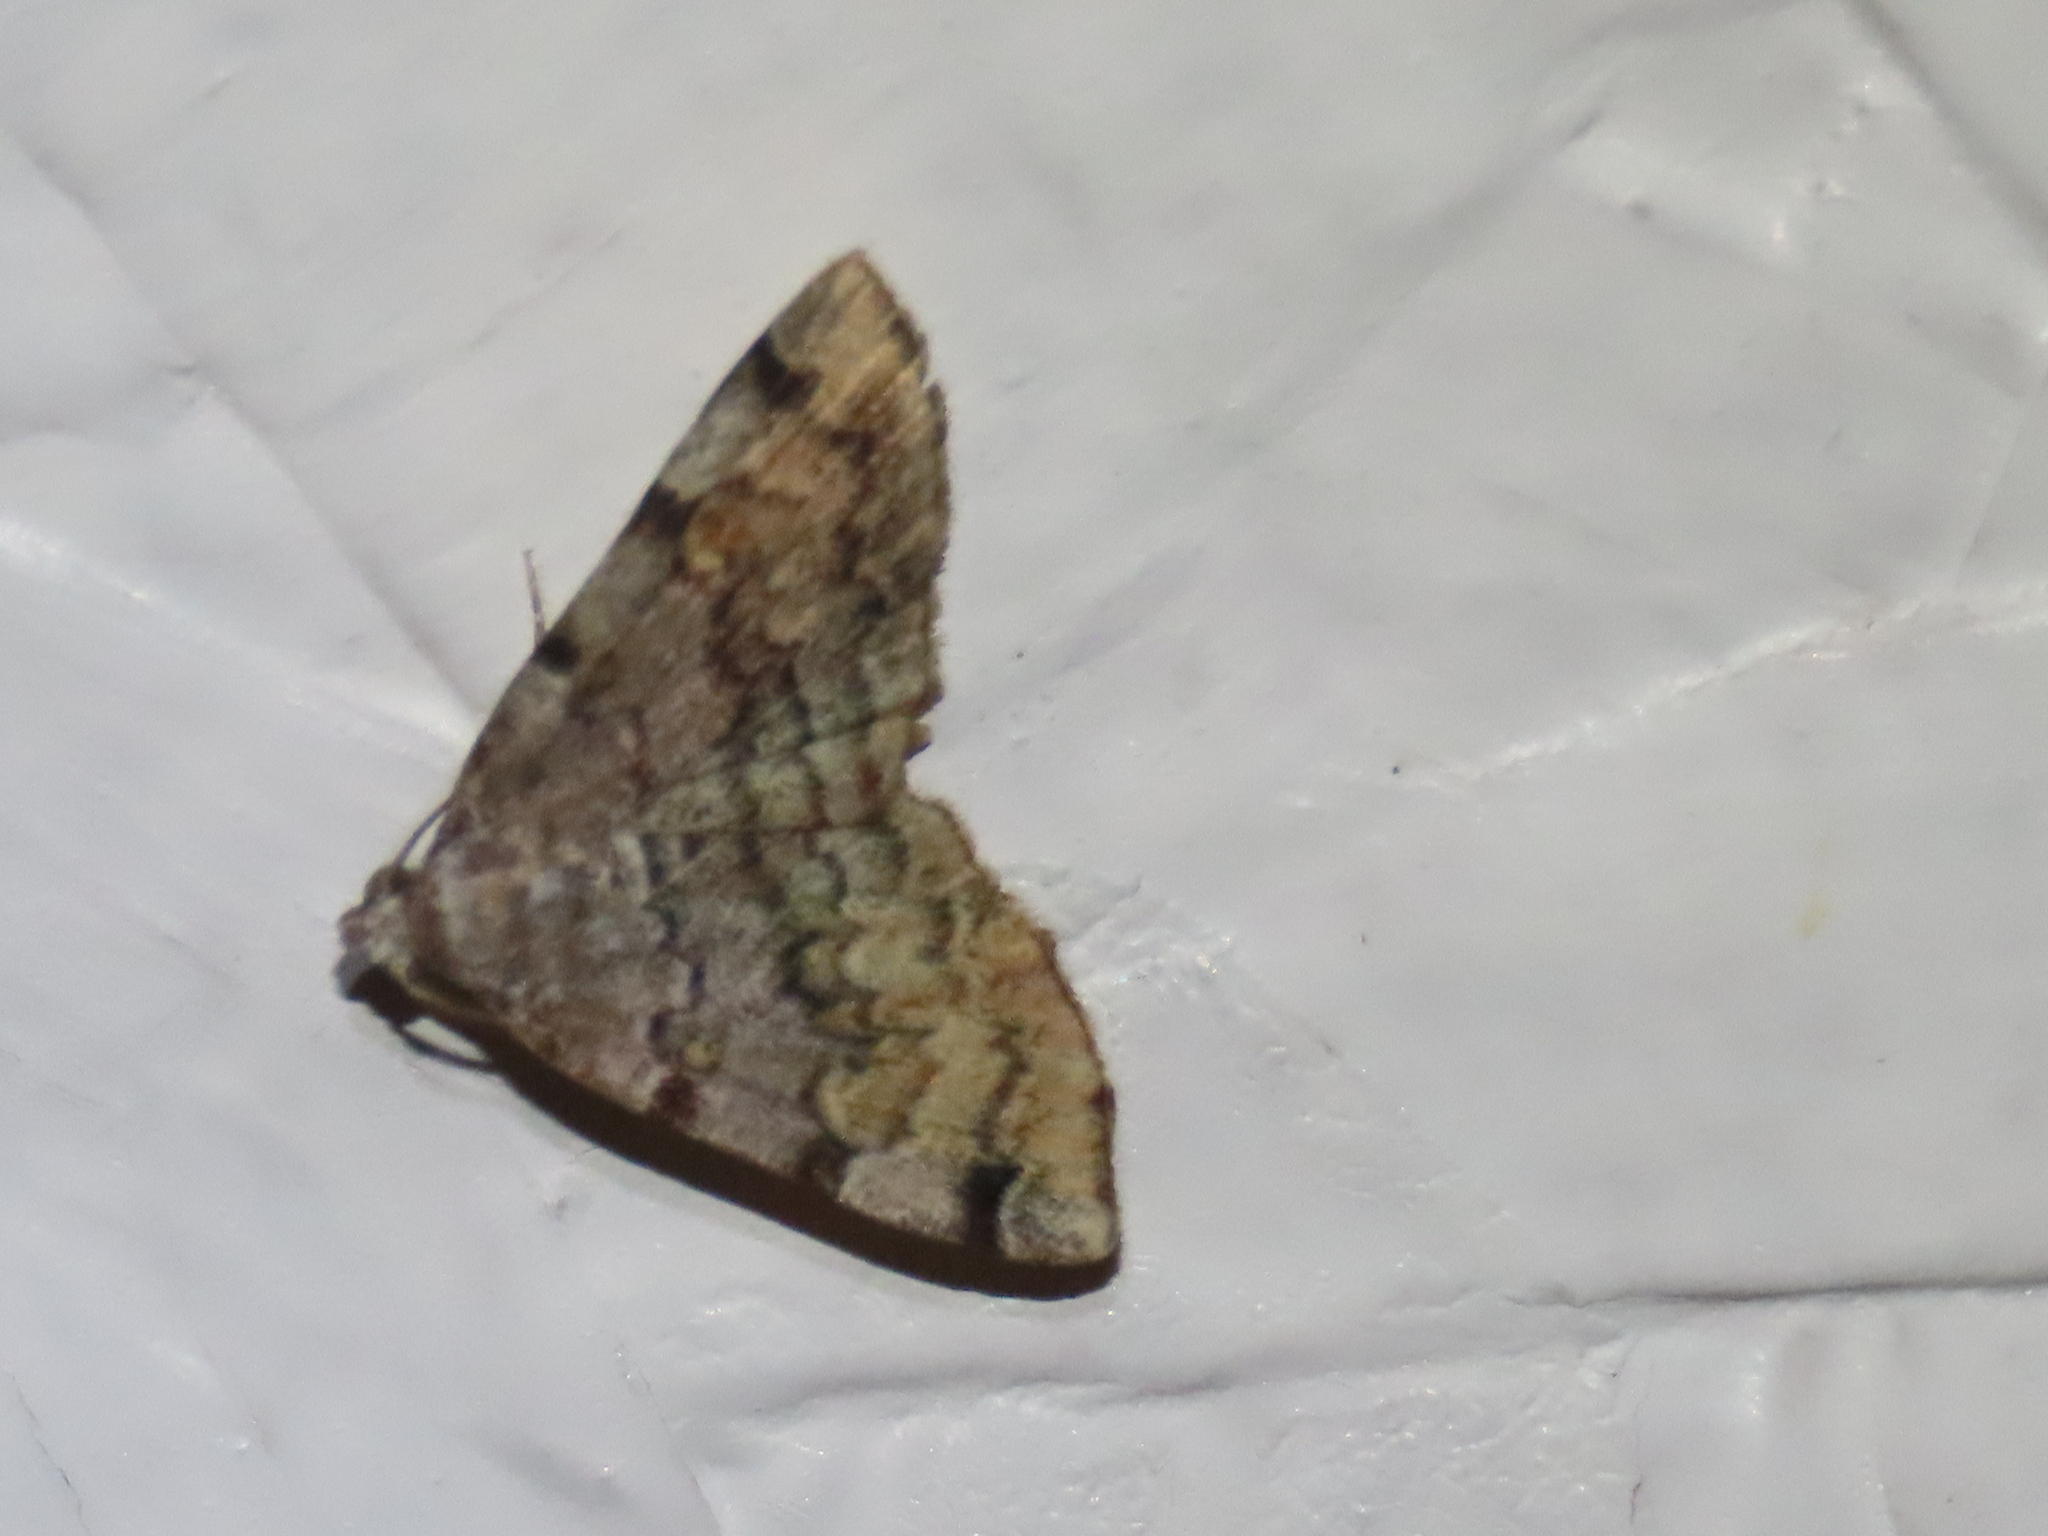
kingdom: Animalia
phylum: Arthropoda
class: Insecta
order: Lepidoptera
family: Erebidae
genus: Idia
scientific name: Idia americalis
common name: American idia moth
